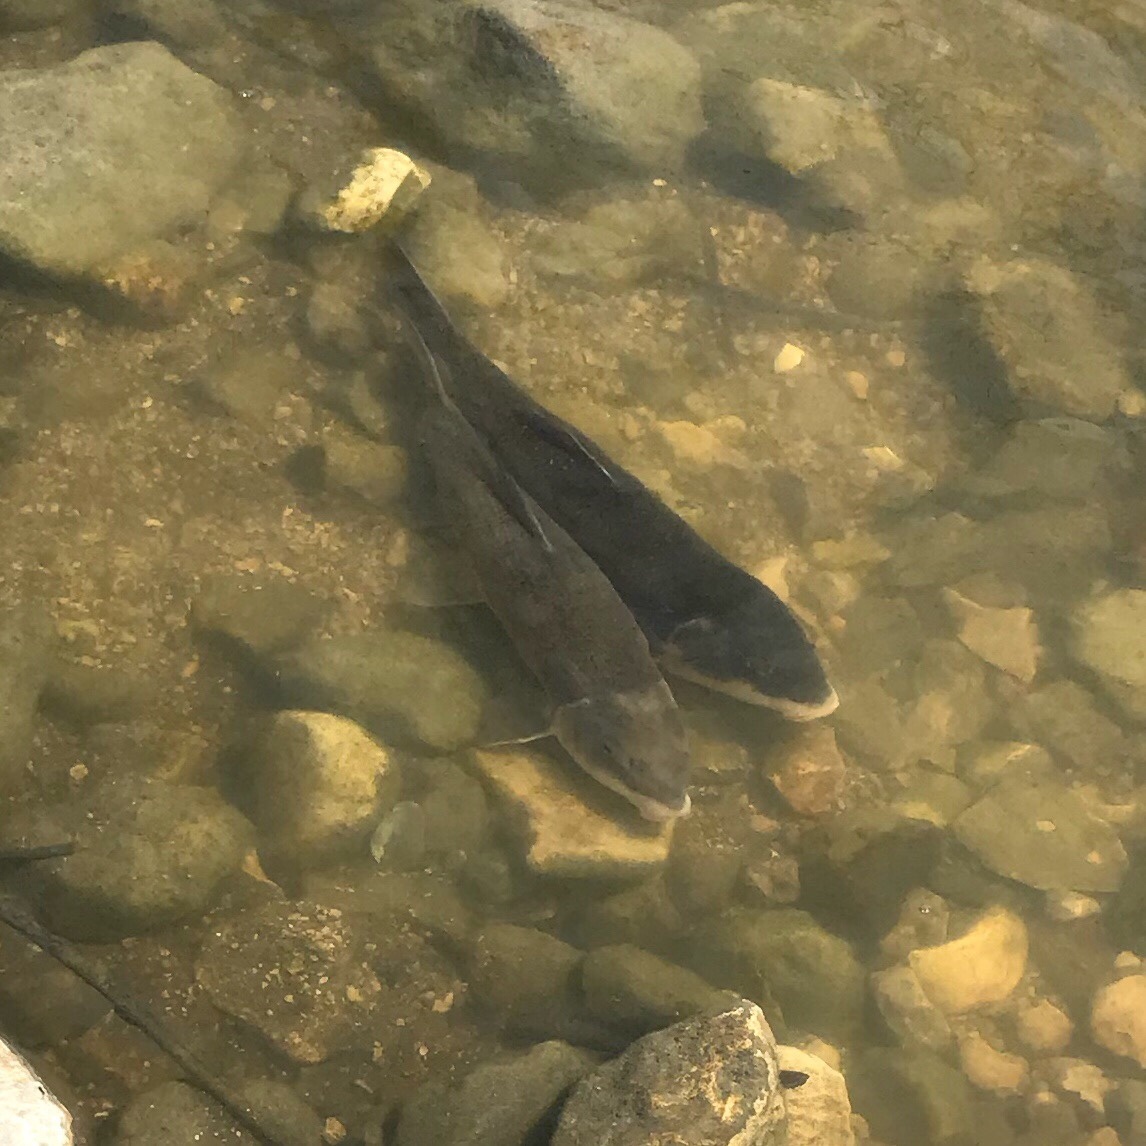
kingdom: Animalia
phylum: Chordata
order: Cypriniformes
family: Catostomidae
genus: Catostomus
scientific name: Catostomus commersonii
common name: White sucker
